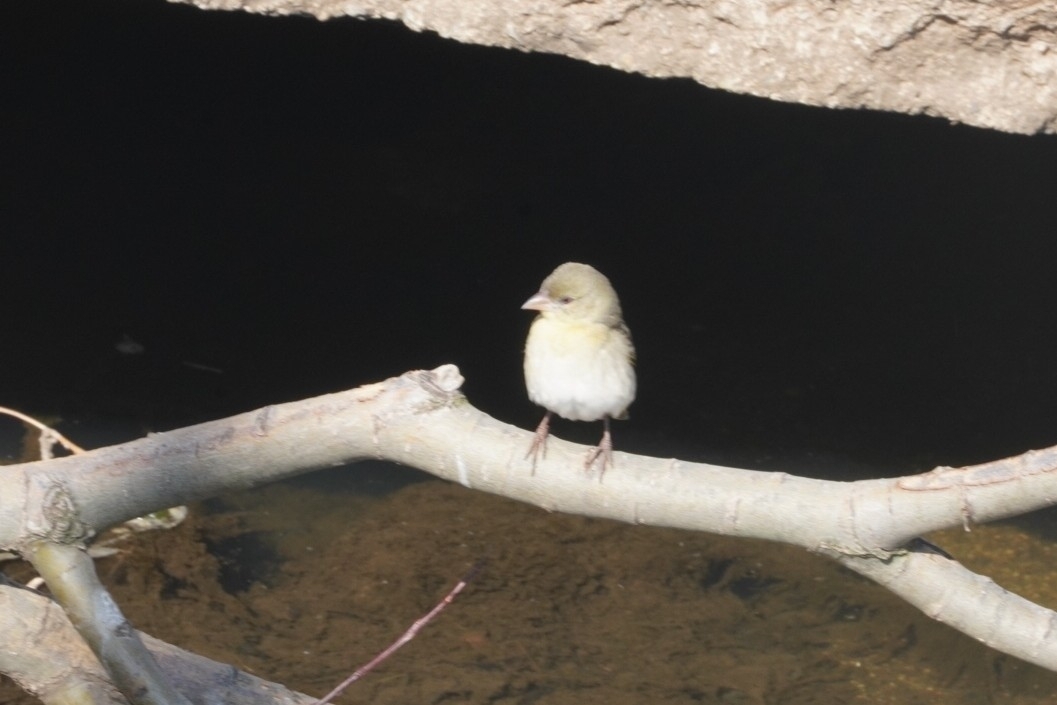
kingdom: Animalia
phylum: Chordata
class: Aves
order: Passeriformes
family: Ploceidae
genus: Ploceus
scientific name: Ploceus velatus
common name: Southern masked weaver
